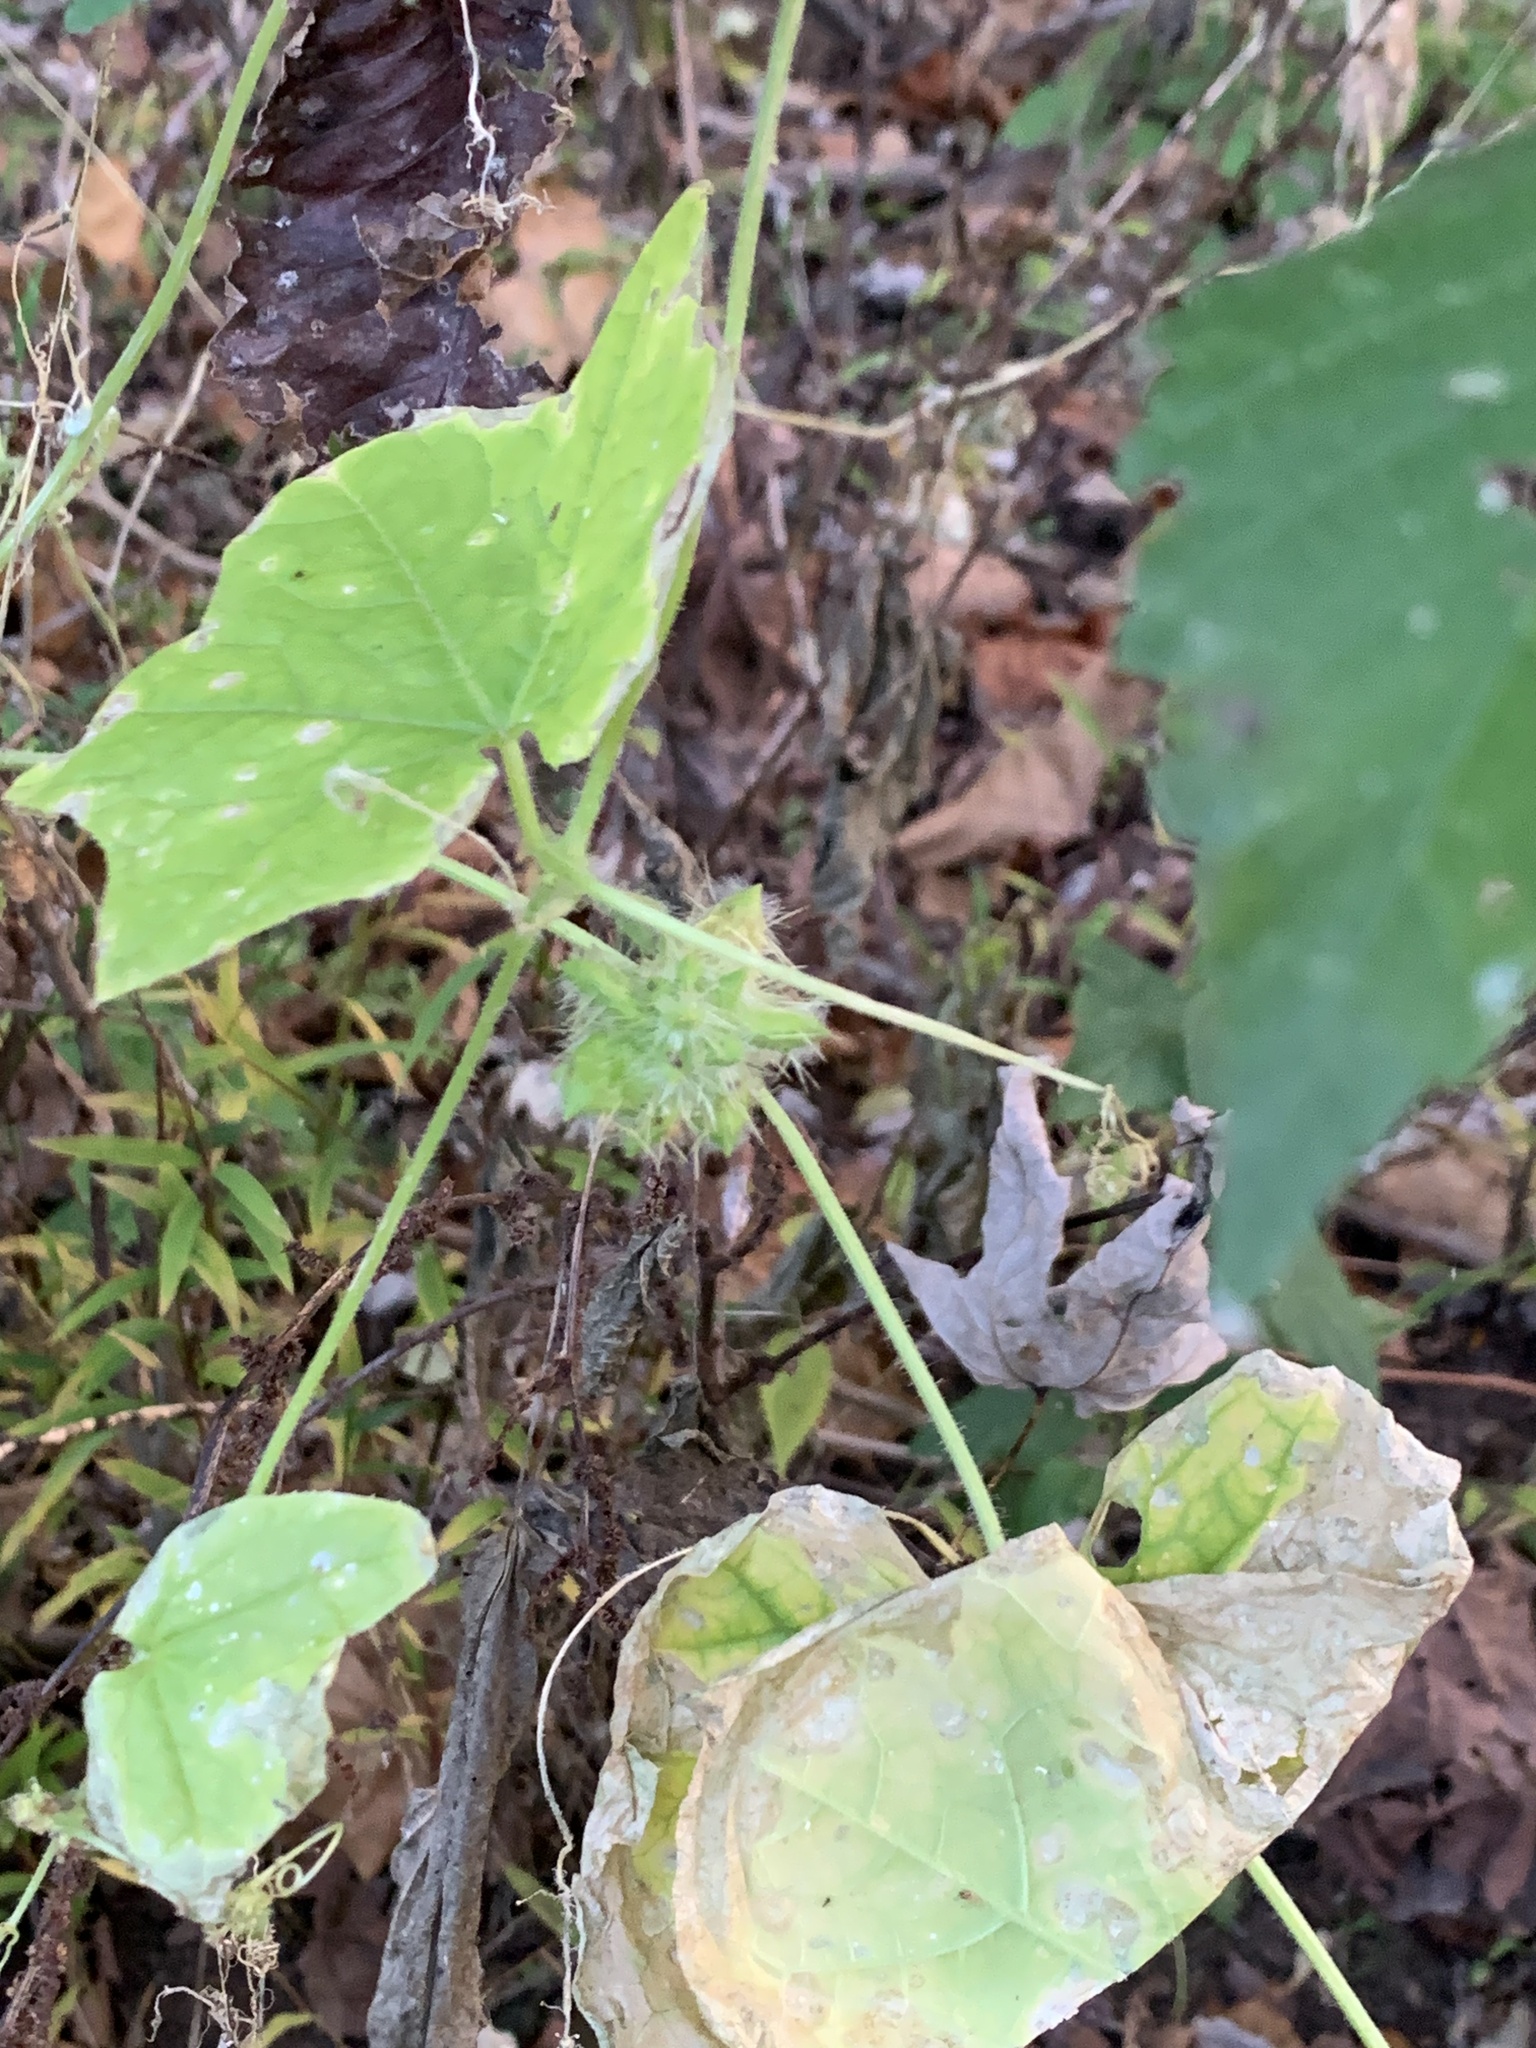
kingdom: Plantae
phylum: Tracheophyta
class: Magnoliopsida
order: Cucurbitales
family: Cucurbitaceae
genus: Sicyos
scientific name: Sicyos angulatus
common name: Angled burr cucumber
